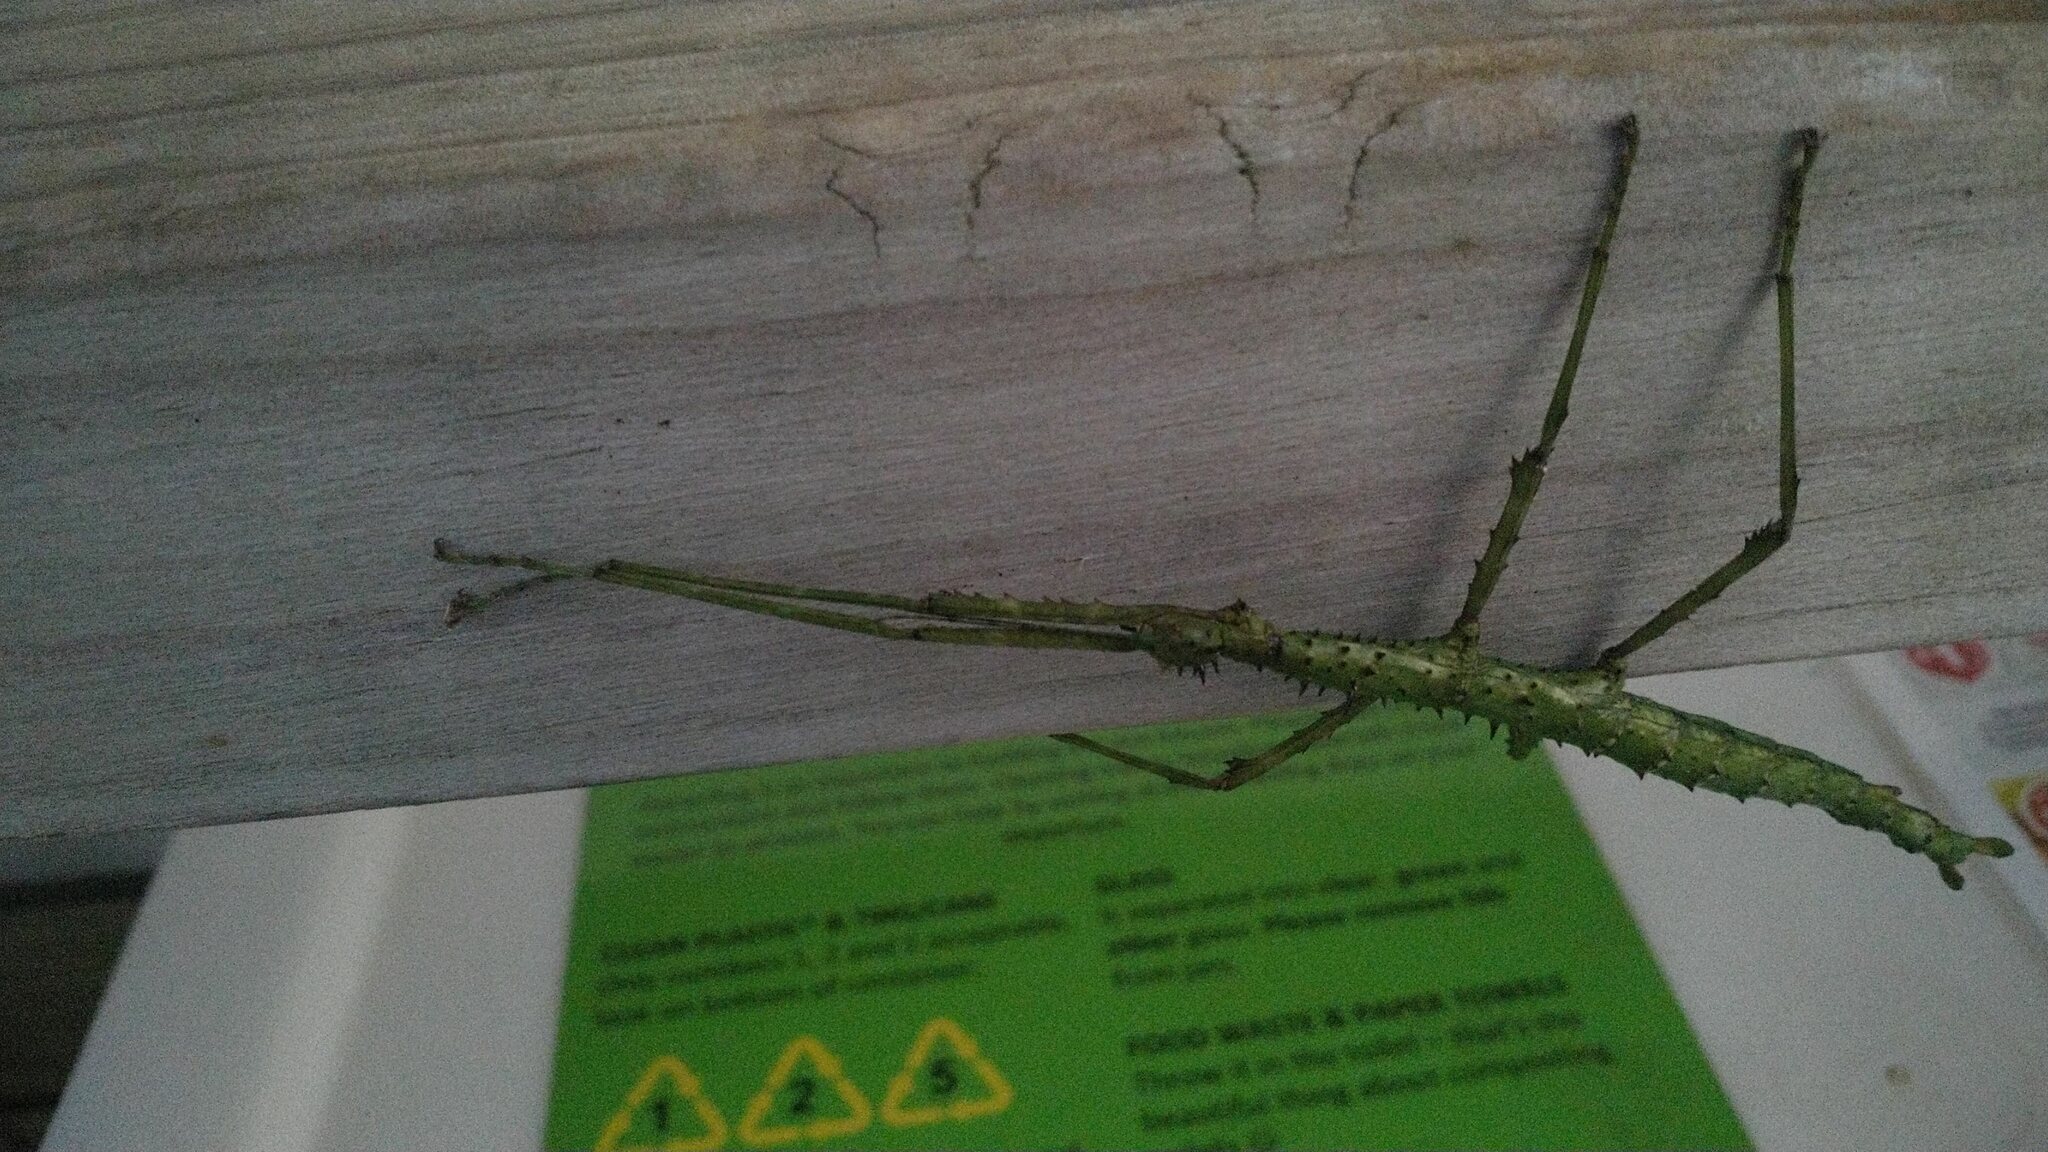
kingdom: Animalia
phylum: Arthropoda
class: Insecta
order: Phasmida
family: Phasmatidae
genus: Acanthoxyla
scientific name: Acanthoxyla prasina
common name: Black-spined stick insect
